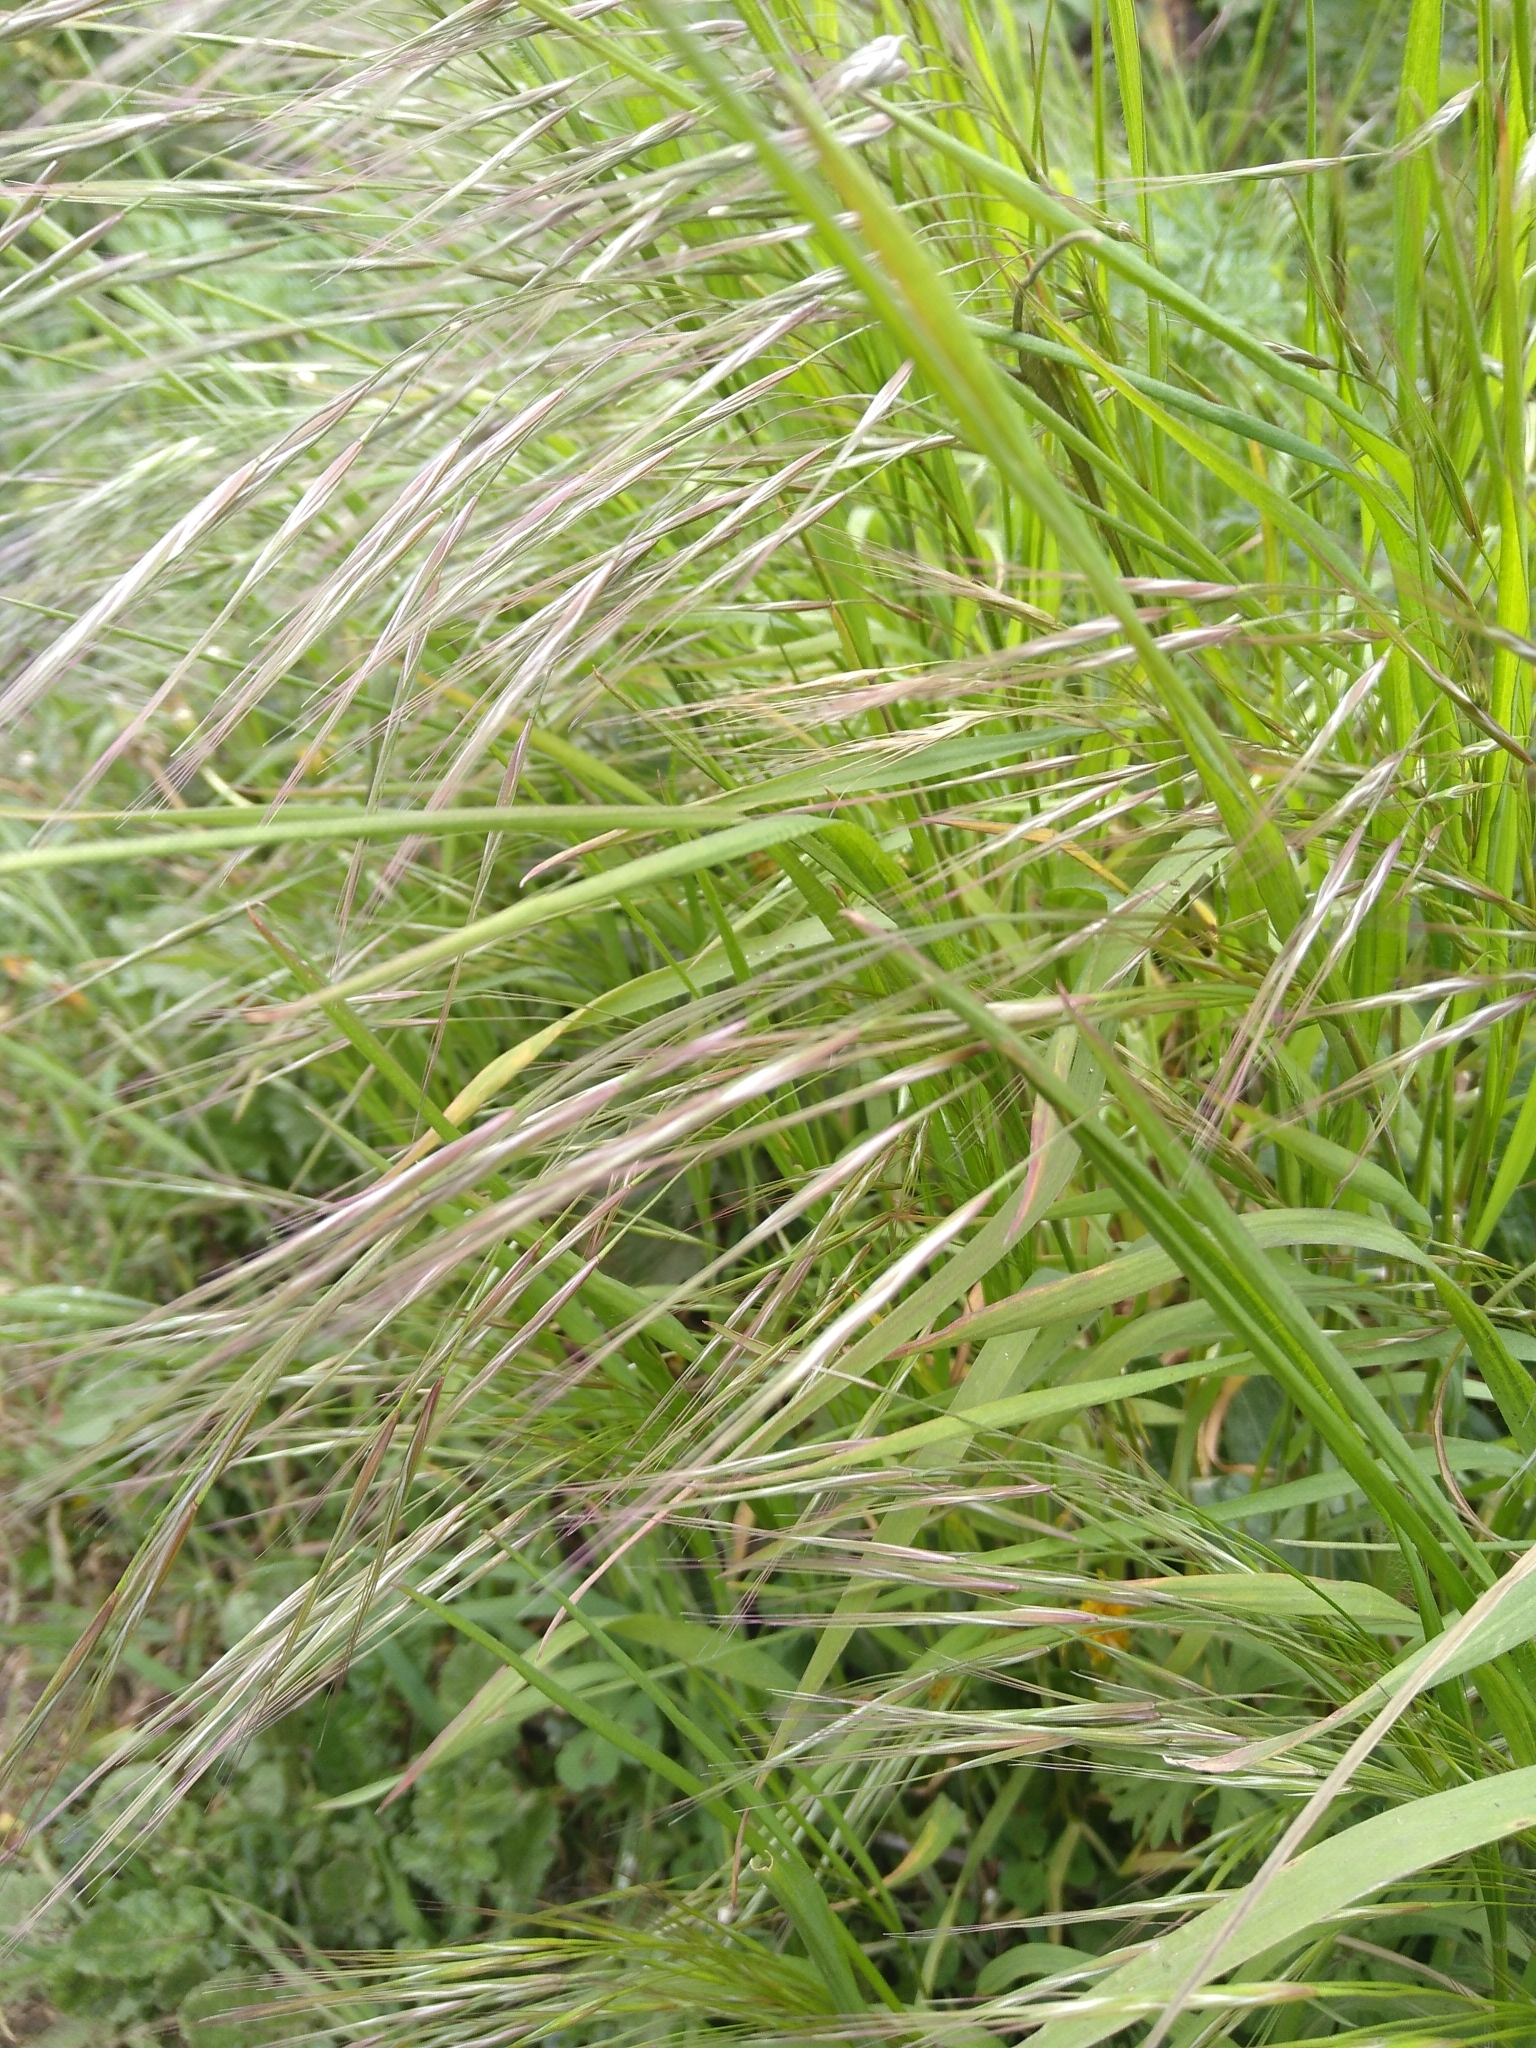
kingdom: Plantae
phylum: Tracheophyta
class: Liliopsida
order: Poales
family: Poaceae
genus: Bromus
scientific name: Bromus sterilis
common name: Poverty brome
